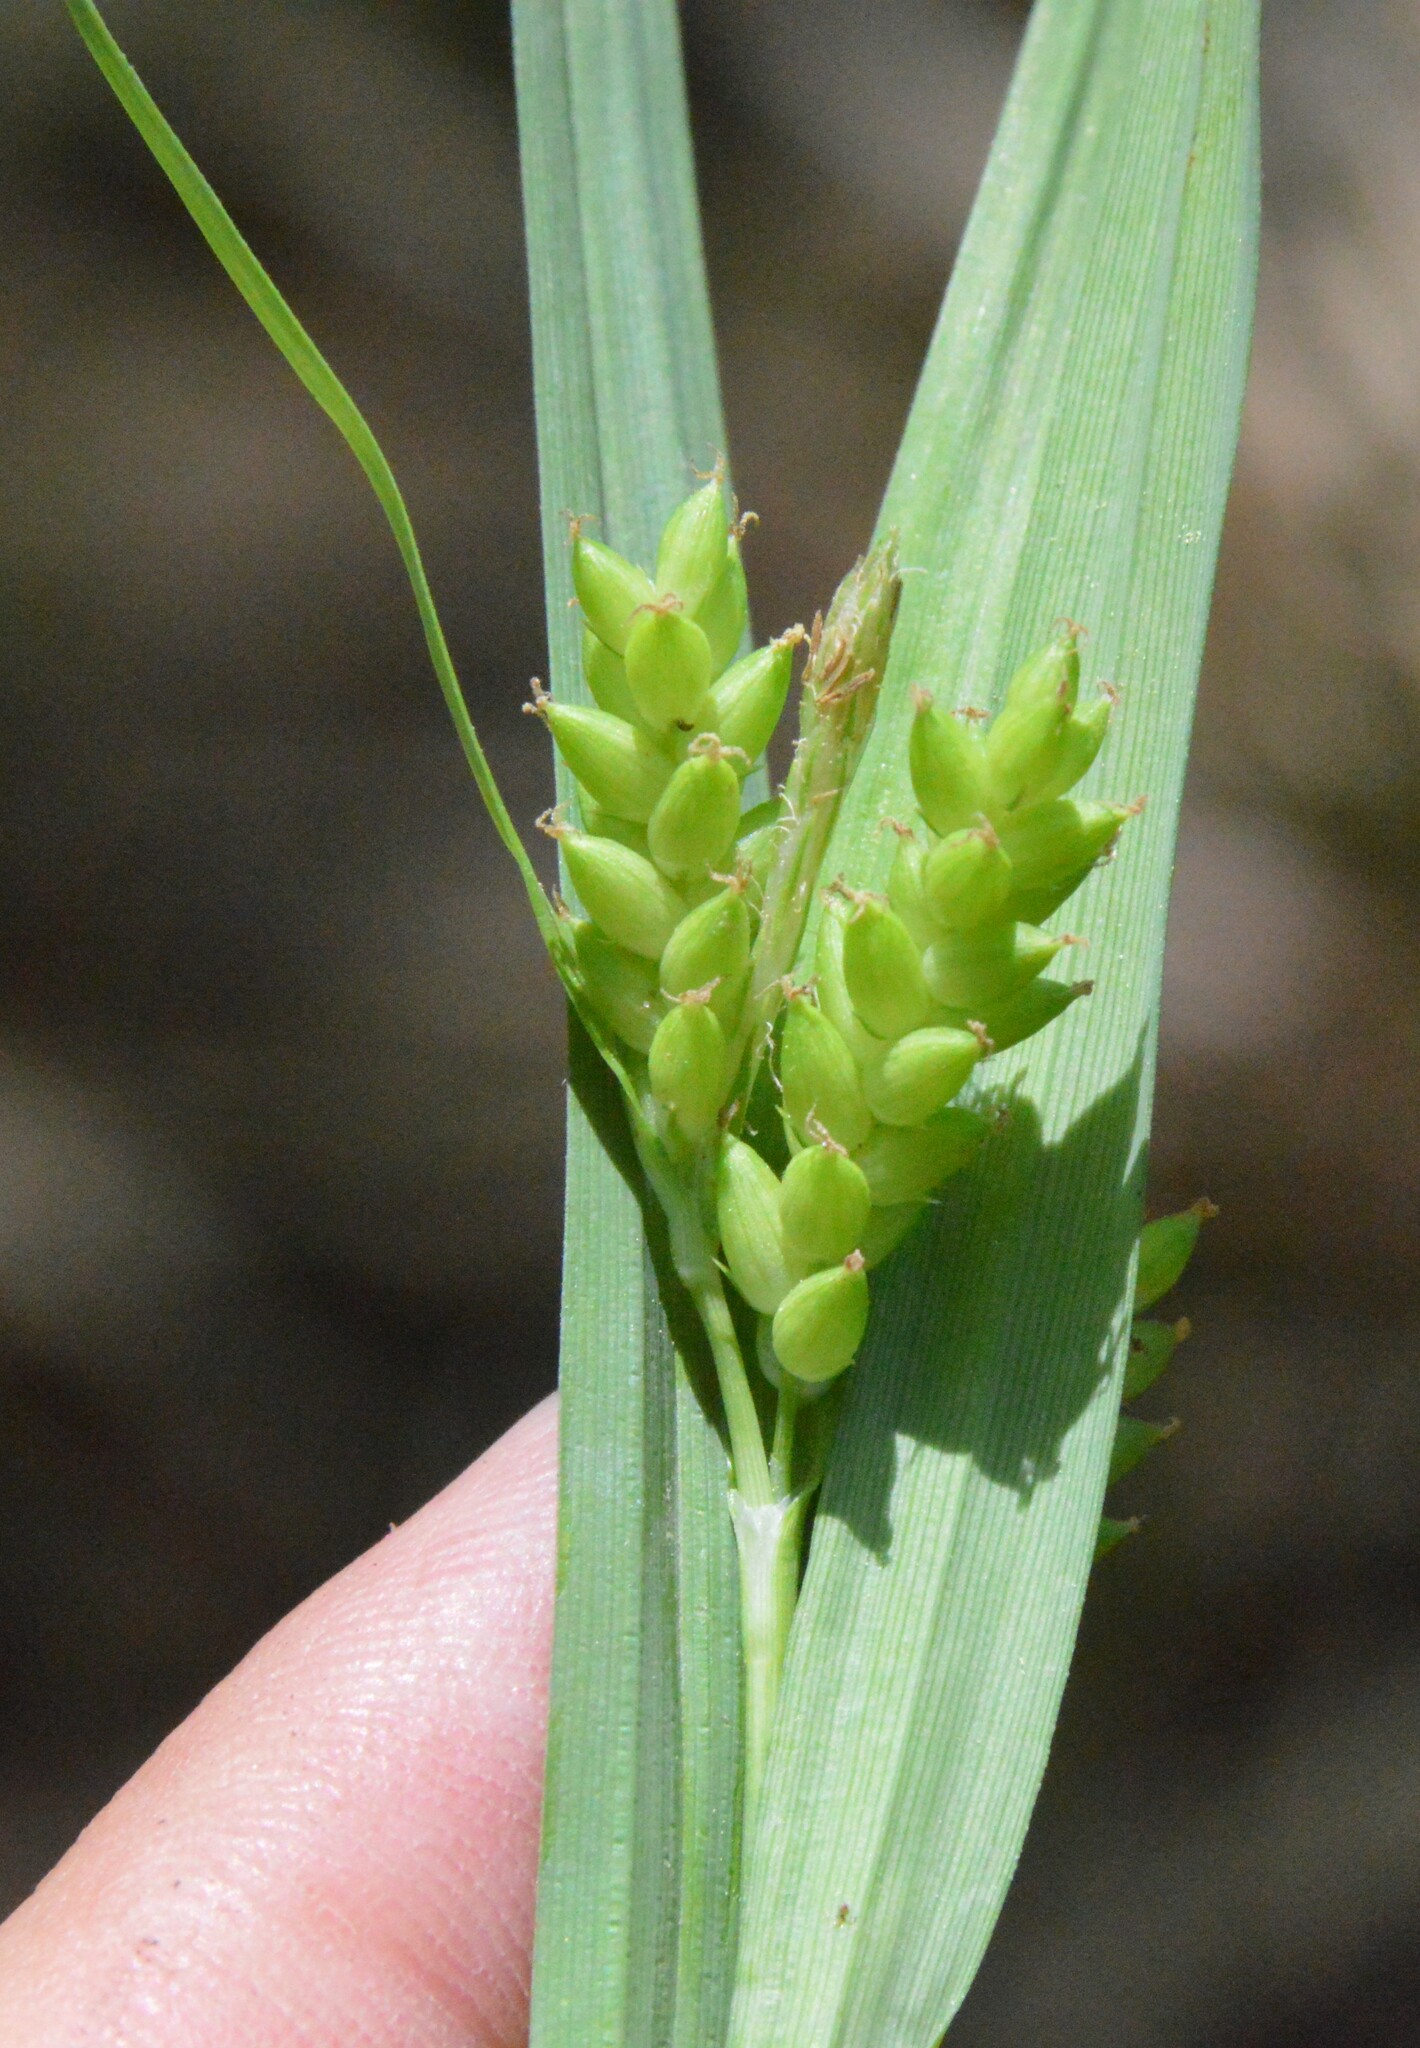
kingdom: Plantae
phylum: Tracheophyta
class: Liliopsida
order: Poales
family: Cyperaceae
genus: Carex
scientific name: Carex flaccosperma
